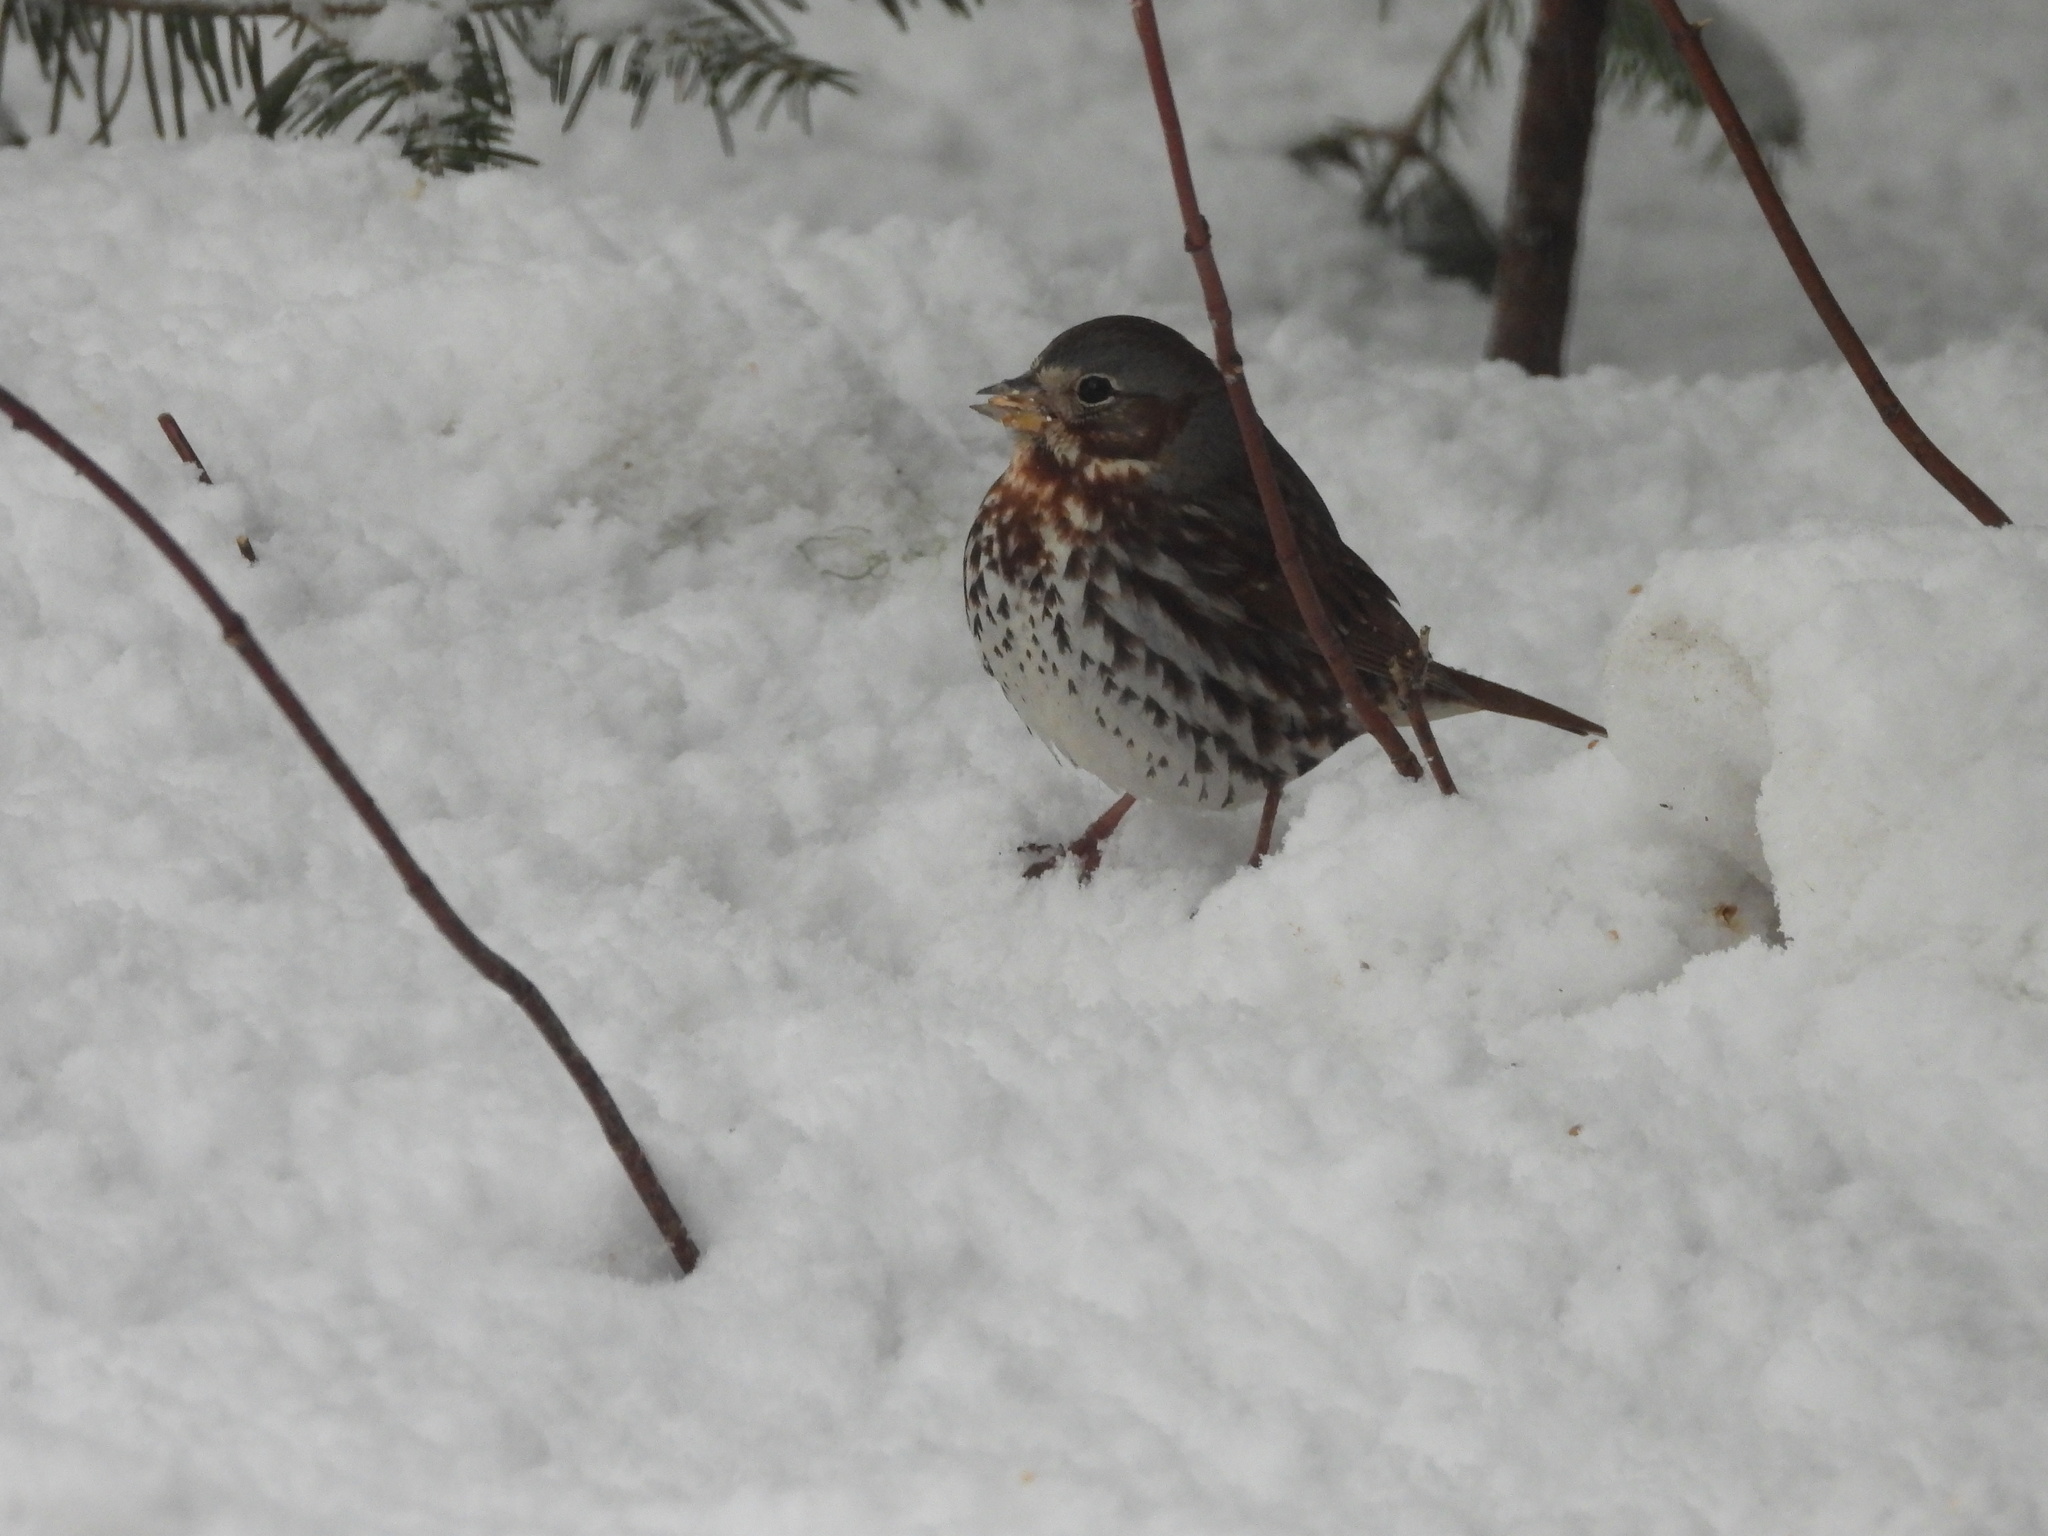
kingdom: Animalia
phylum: Chordata
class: Aves
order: Passeriformes
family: Passerellidae
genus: Passerella
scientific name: Passerella iliaca
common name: Fox sparrow
